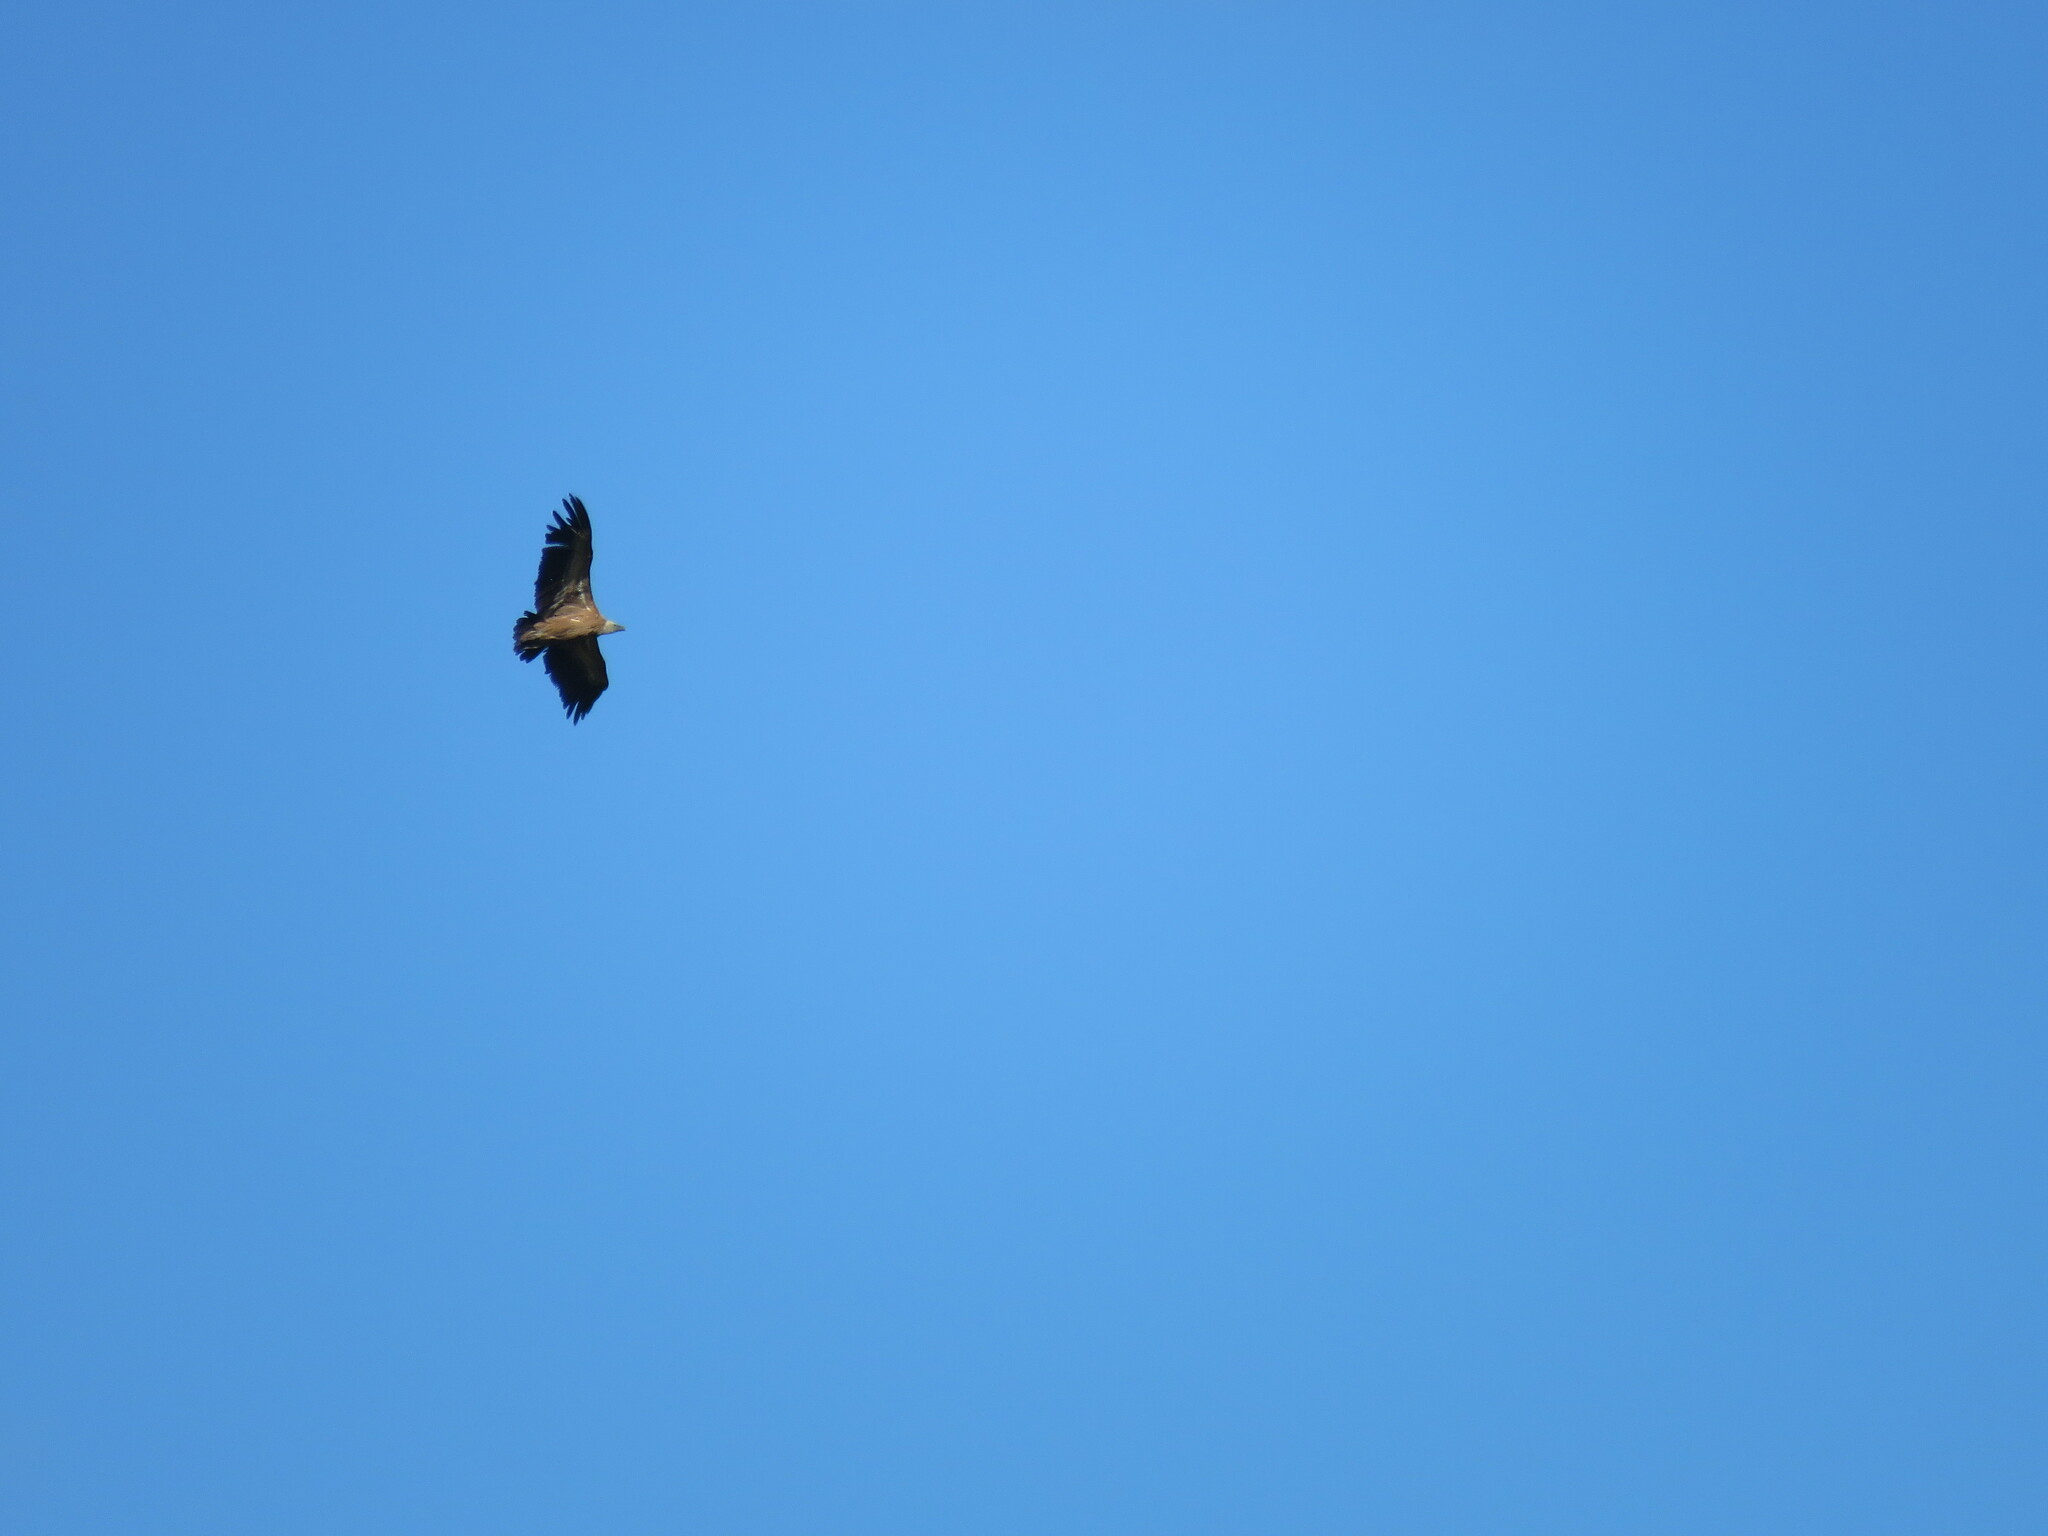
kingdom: Animalia
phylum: Chordata
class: Aves
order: Accipitriformes
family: Accipitridae
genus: Gyps
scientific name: Gyps fulvus
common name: Griffon vulture
